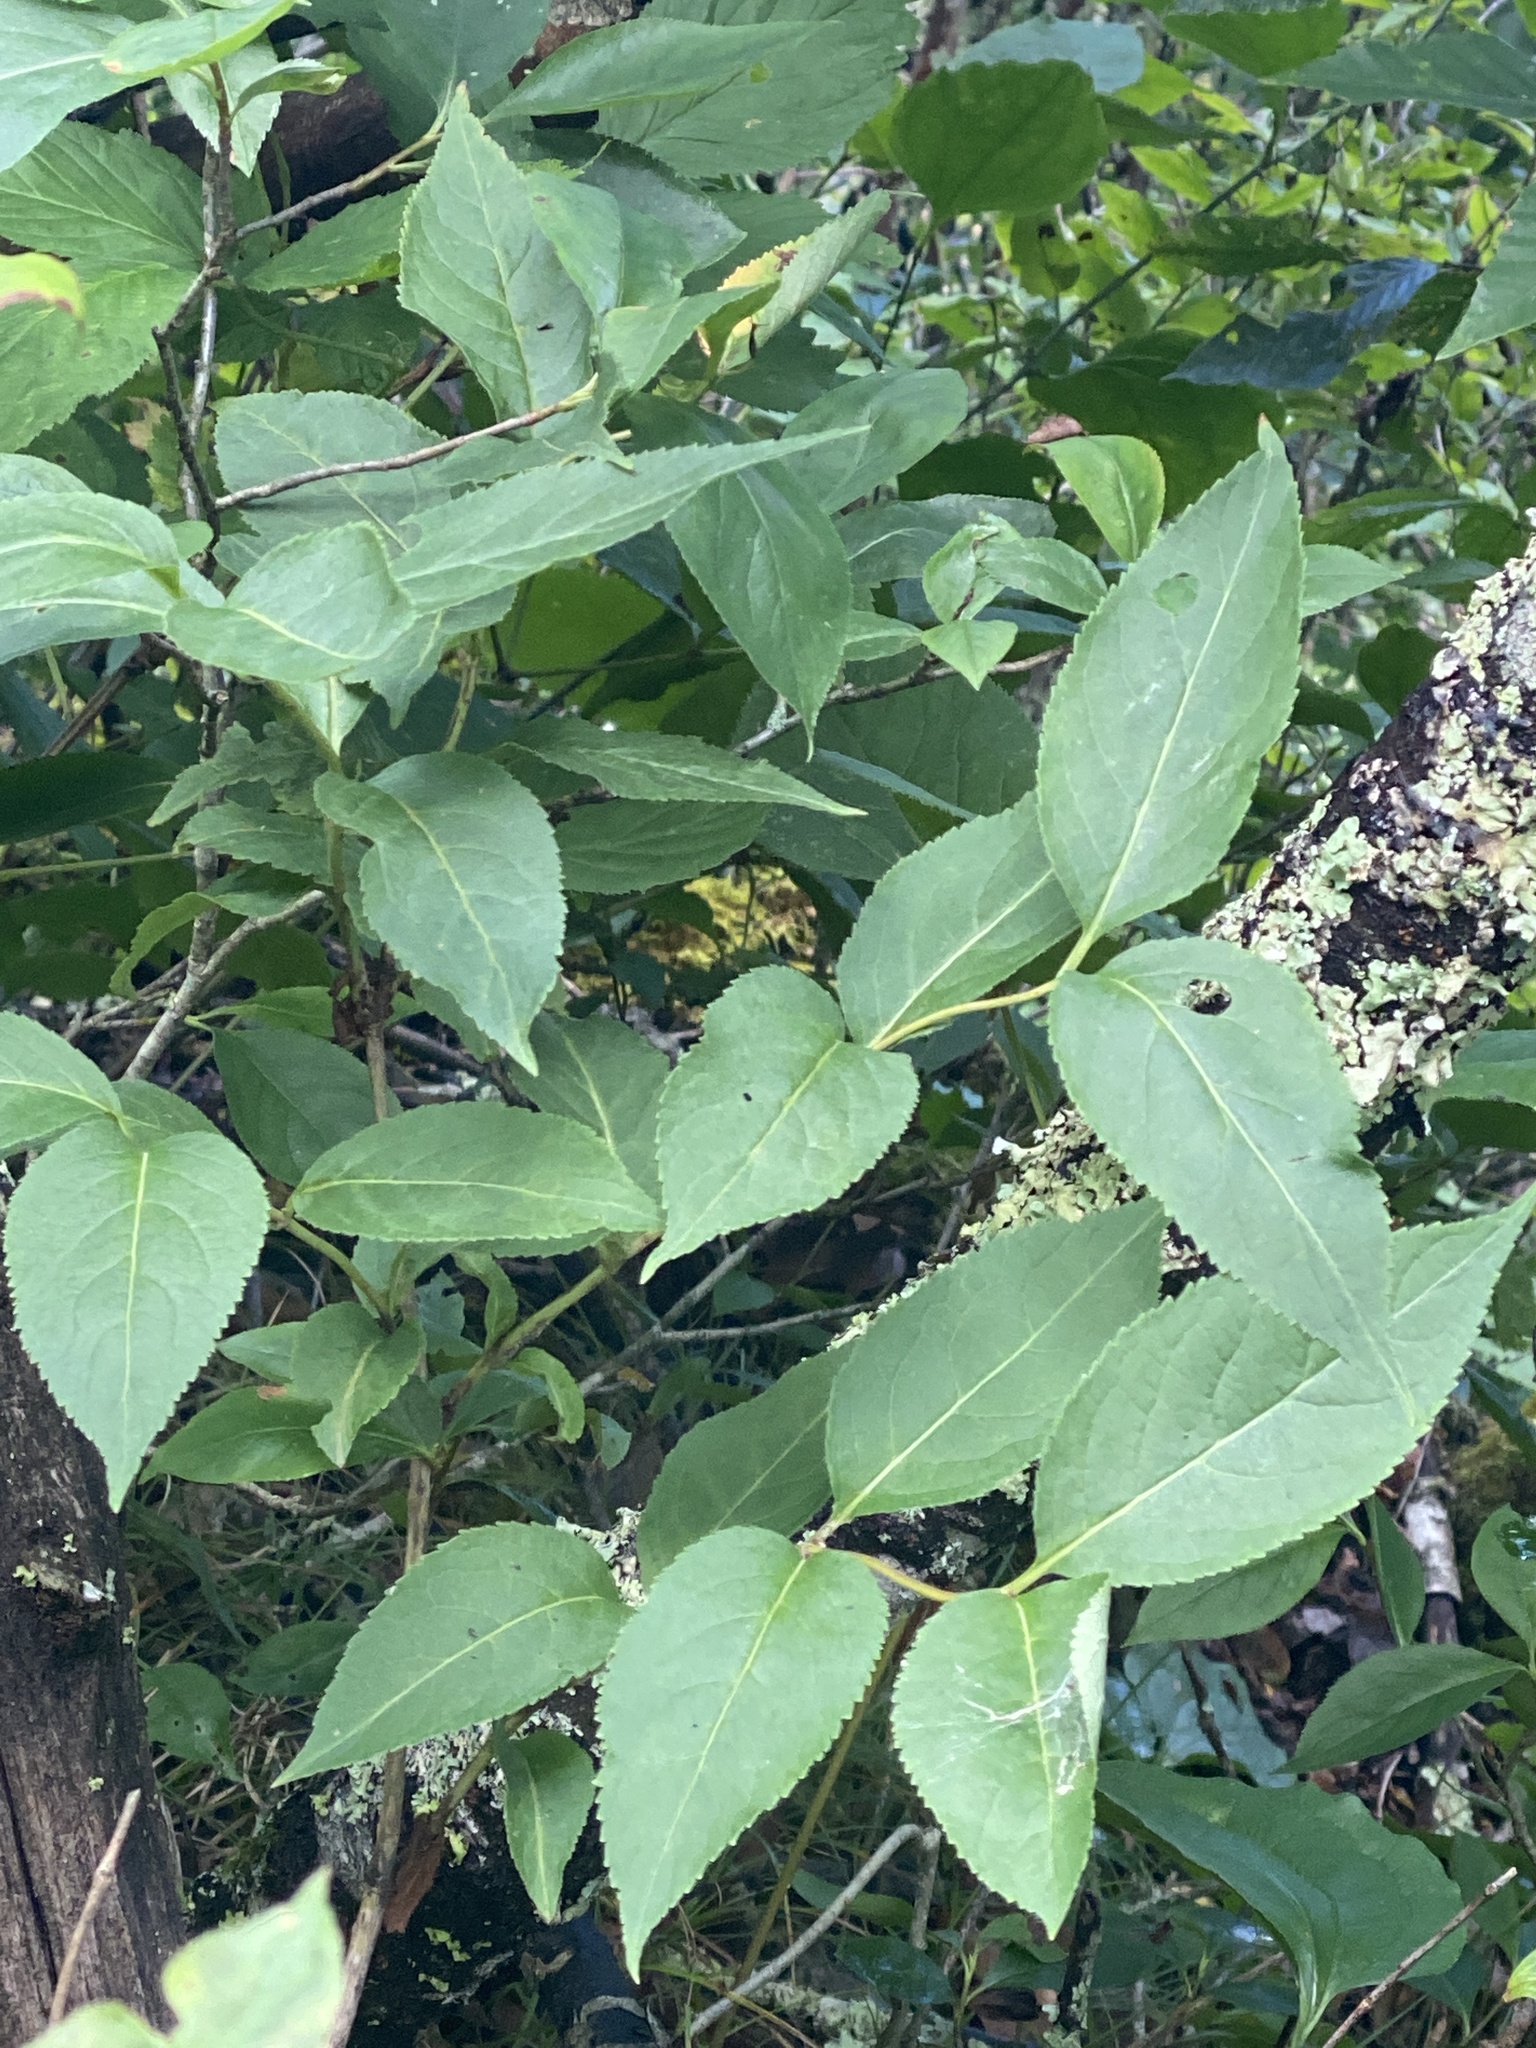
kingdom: Plantae
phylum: Tracheophyta
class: Magnoliopsida
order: Dipsacales
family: Caprifoliaceae
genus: Diervilla
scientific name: Diervilla lonicera
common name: Bush-honeysuckle
